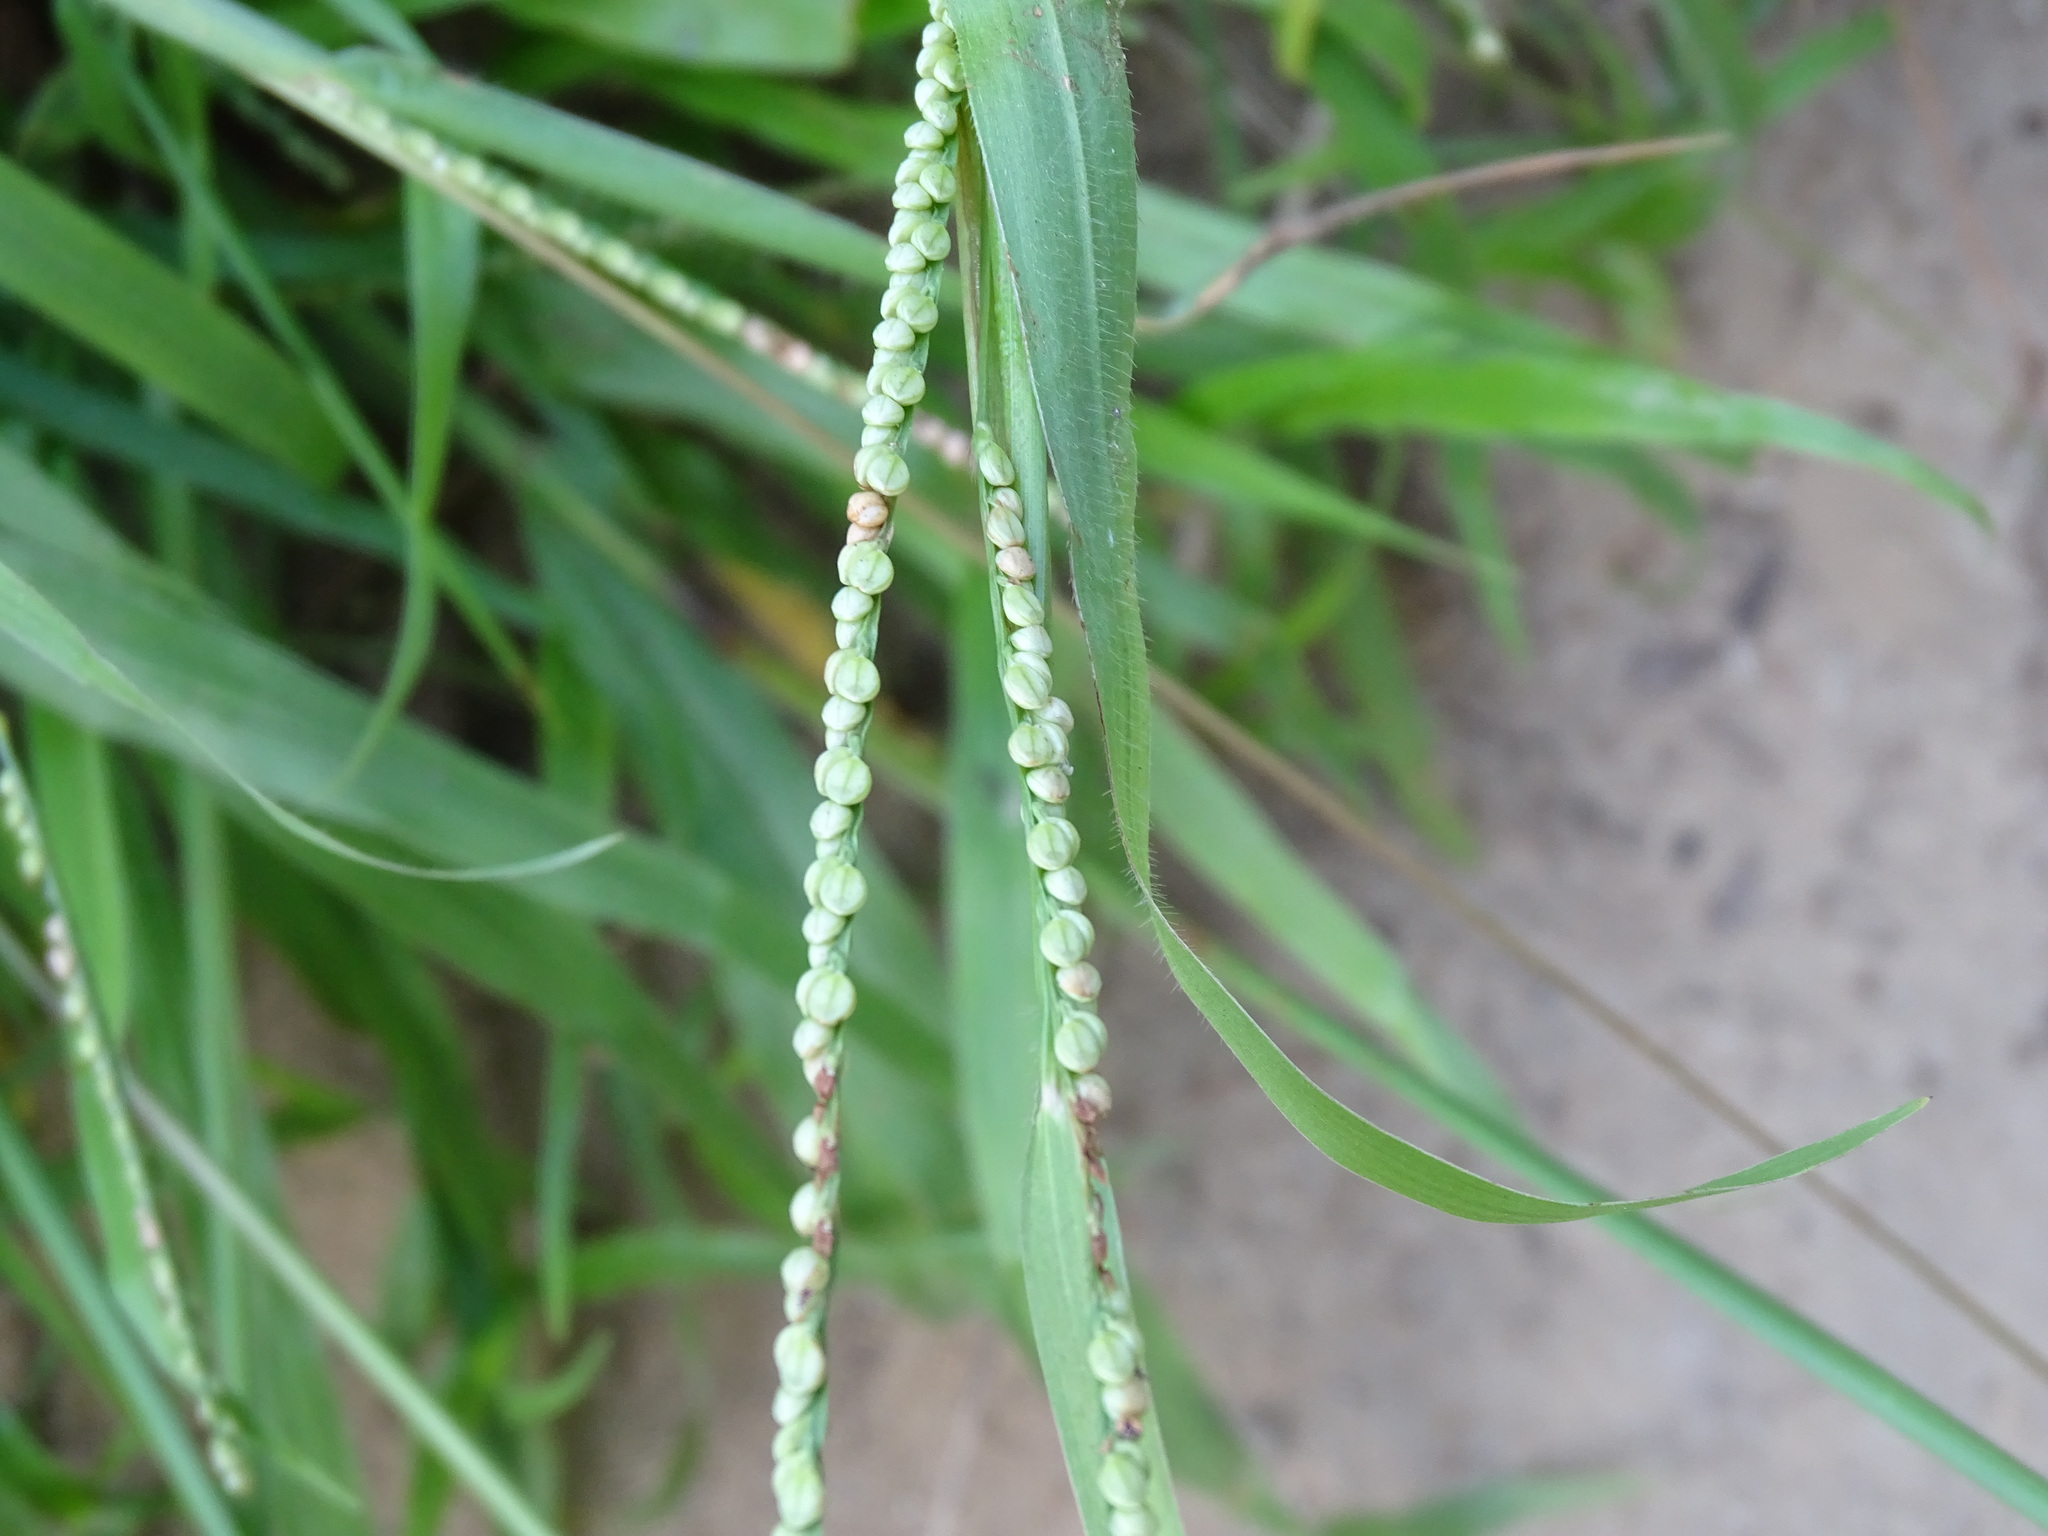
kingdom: Plantae
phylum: Tracheophyta
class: Liliopsida
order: Poales
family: Poaceae
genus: Paspalum
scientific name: Paspalum setaceum
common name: Slender paspalum
